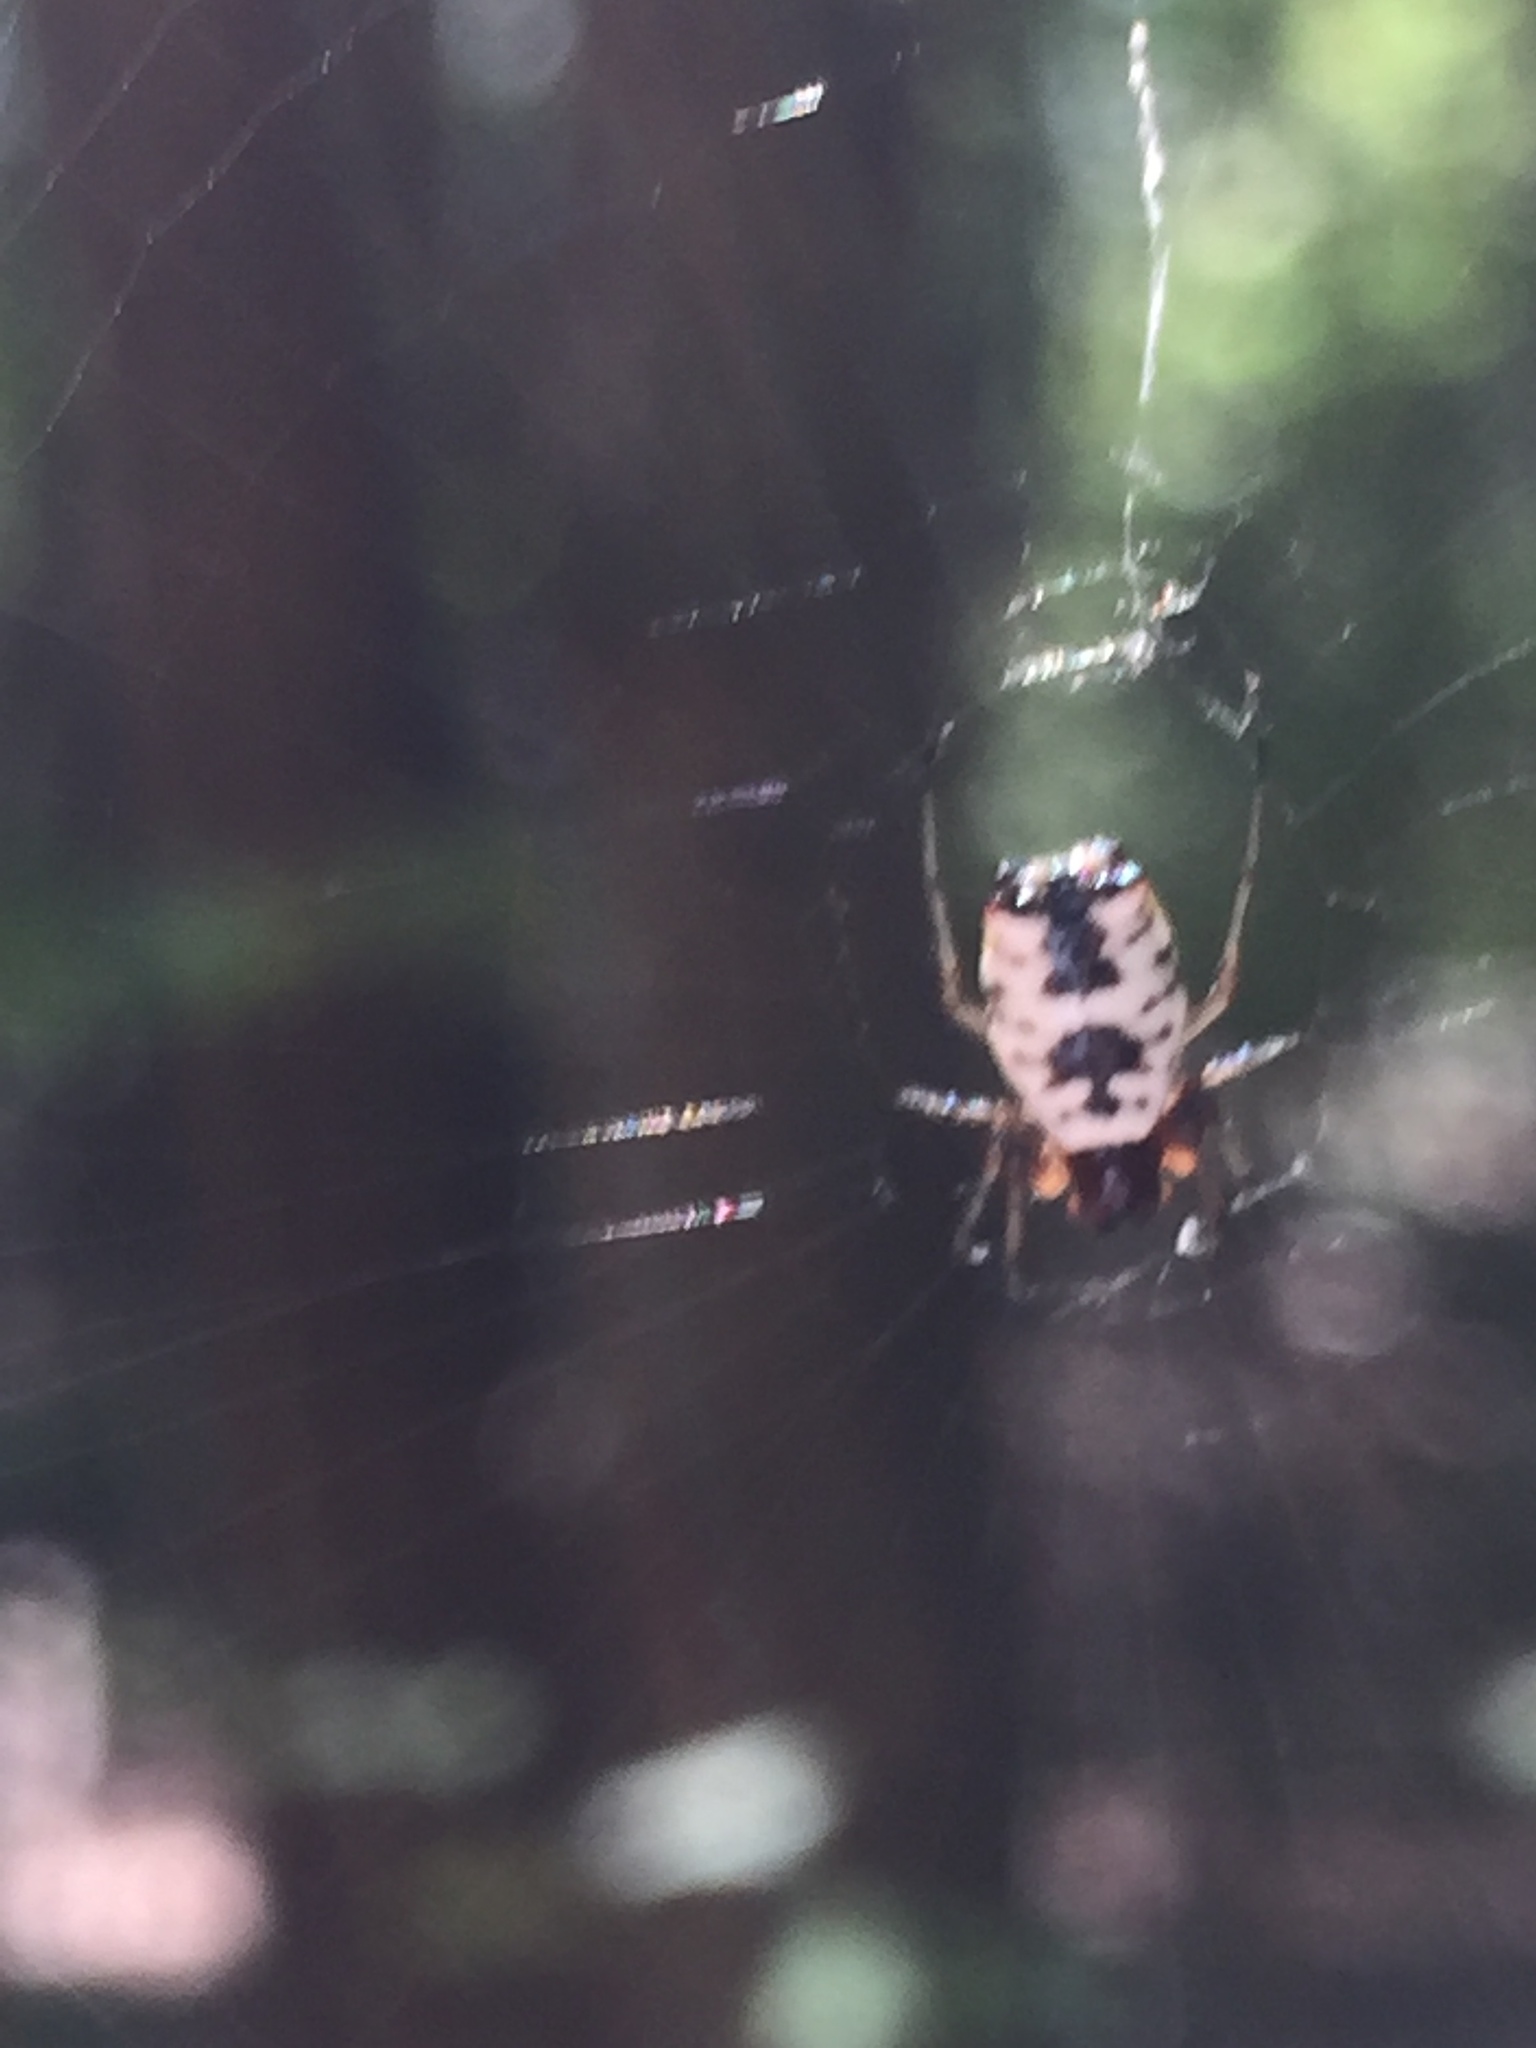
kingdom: Animalia
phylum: Arthropoda
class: Arachnida
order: Araneae
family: Araneidae
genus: Micrathena
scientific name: Micrathena mitrata
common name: Orb weavers
